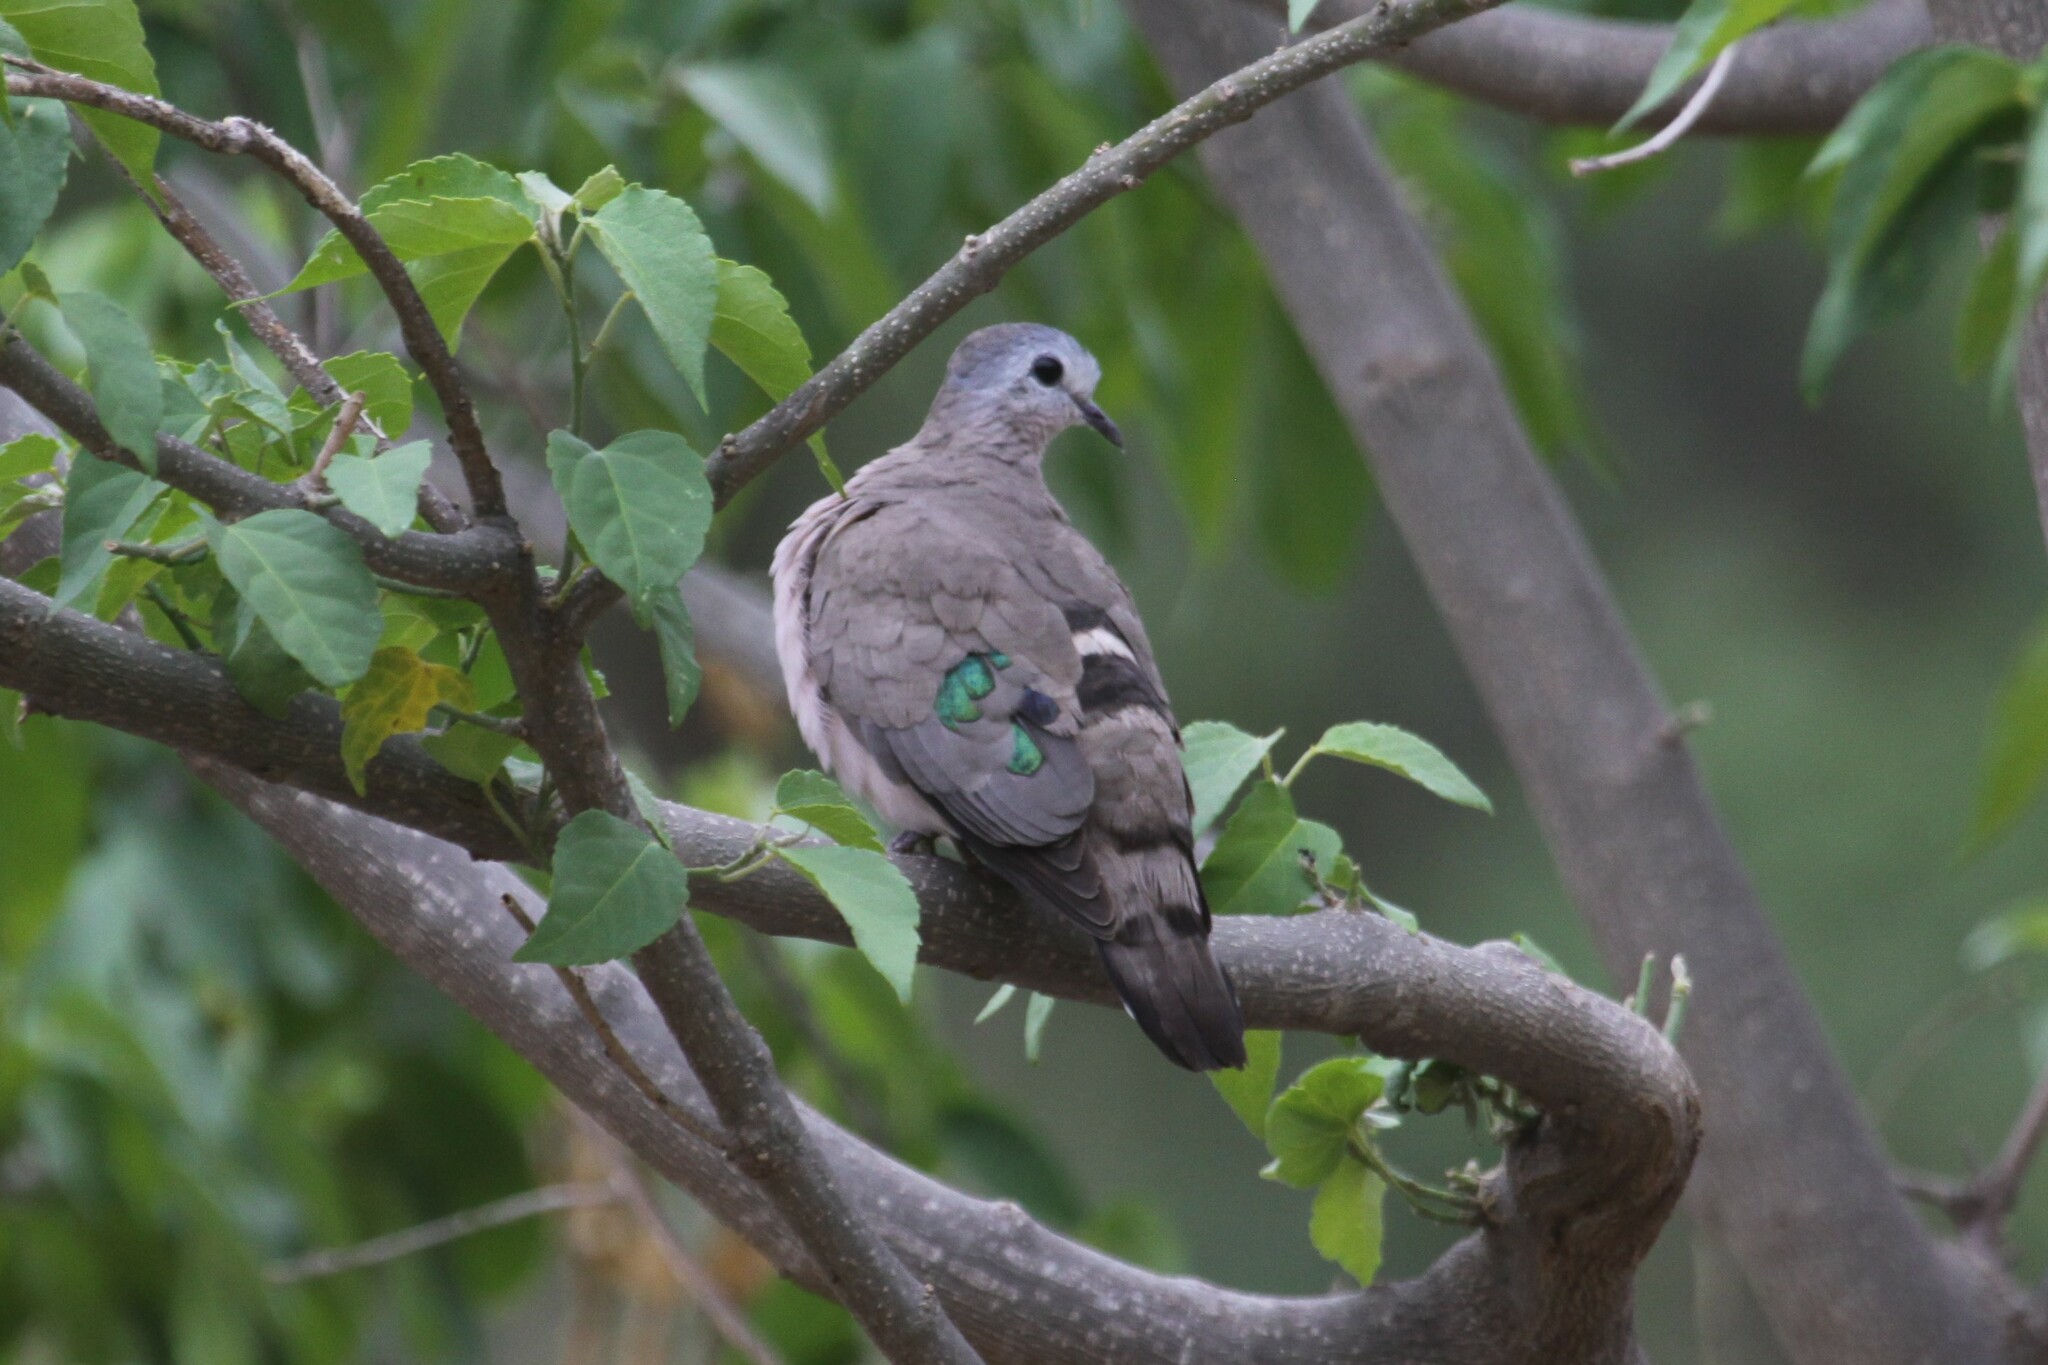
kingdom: Animalia
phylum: Chordata
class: Aves
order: Columbiformes
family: Columbidae
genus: Turtur
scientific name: Turtur chalcospilos
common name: Emerald-spotted wood dove
